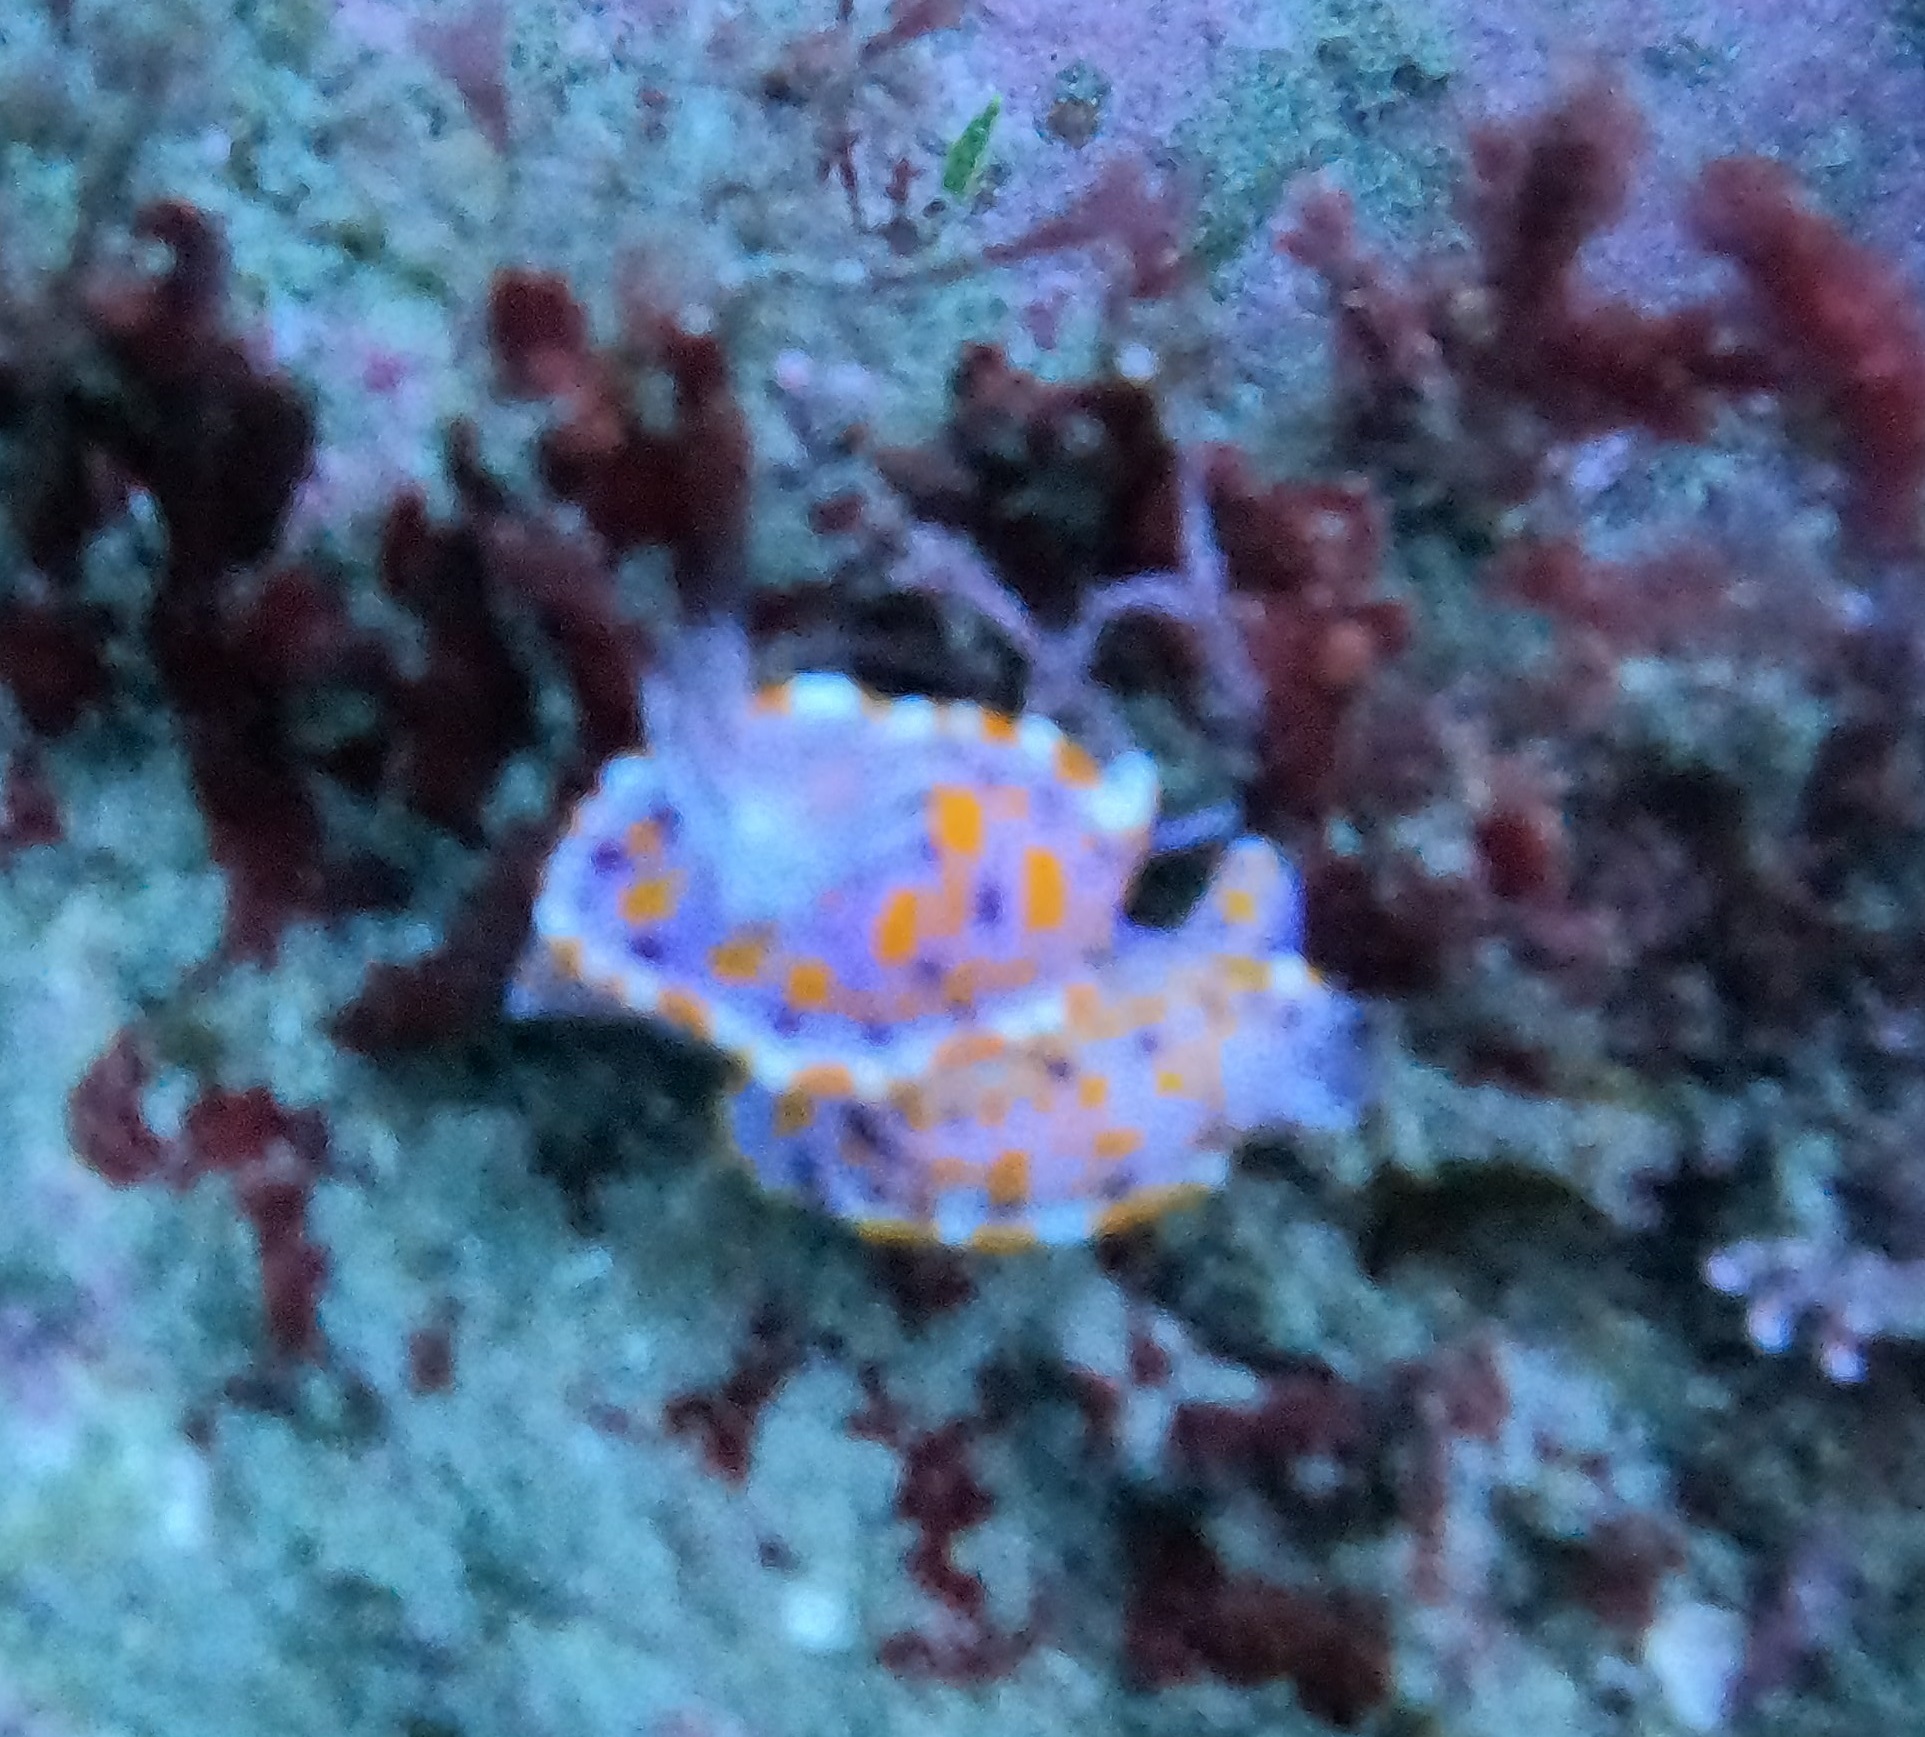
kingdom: Animalia
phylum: Mollusca
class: Gastropoda
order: Nudibranchia
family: Chromodorididae
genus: Ceratosoma
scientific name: Ceratosoma amoenum
